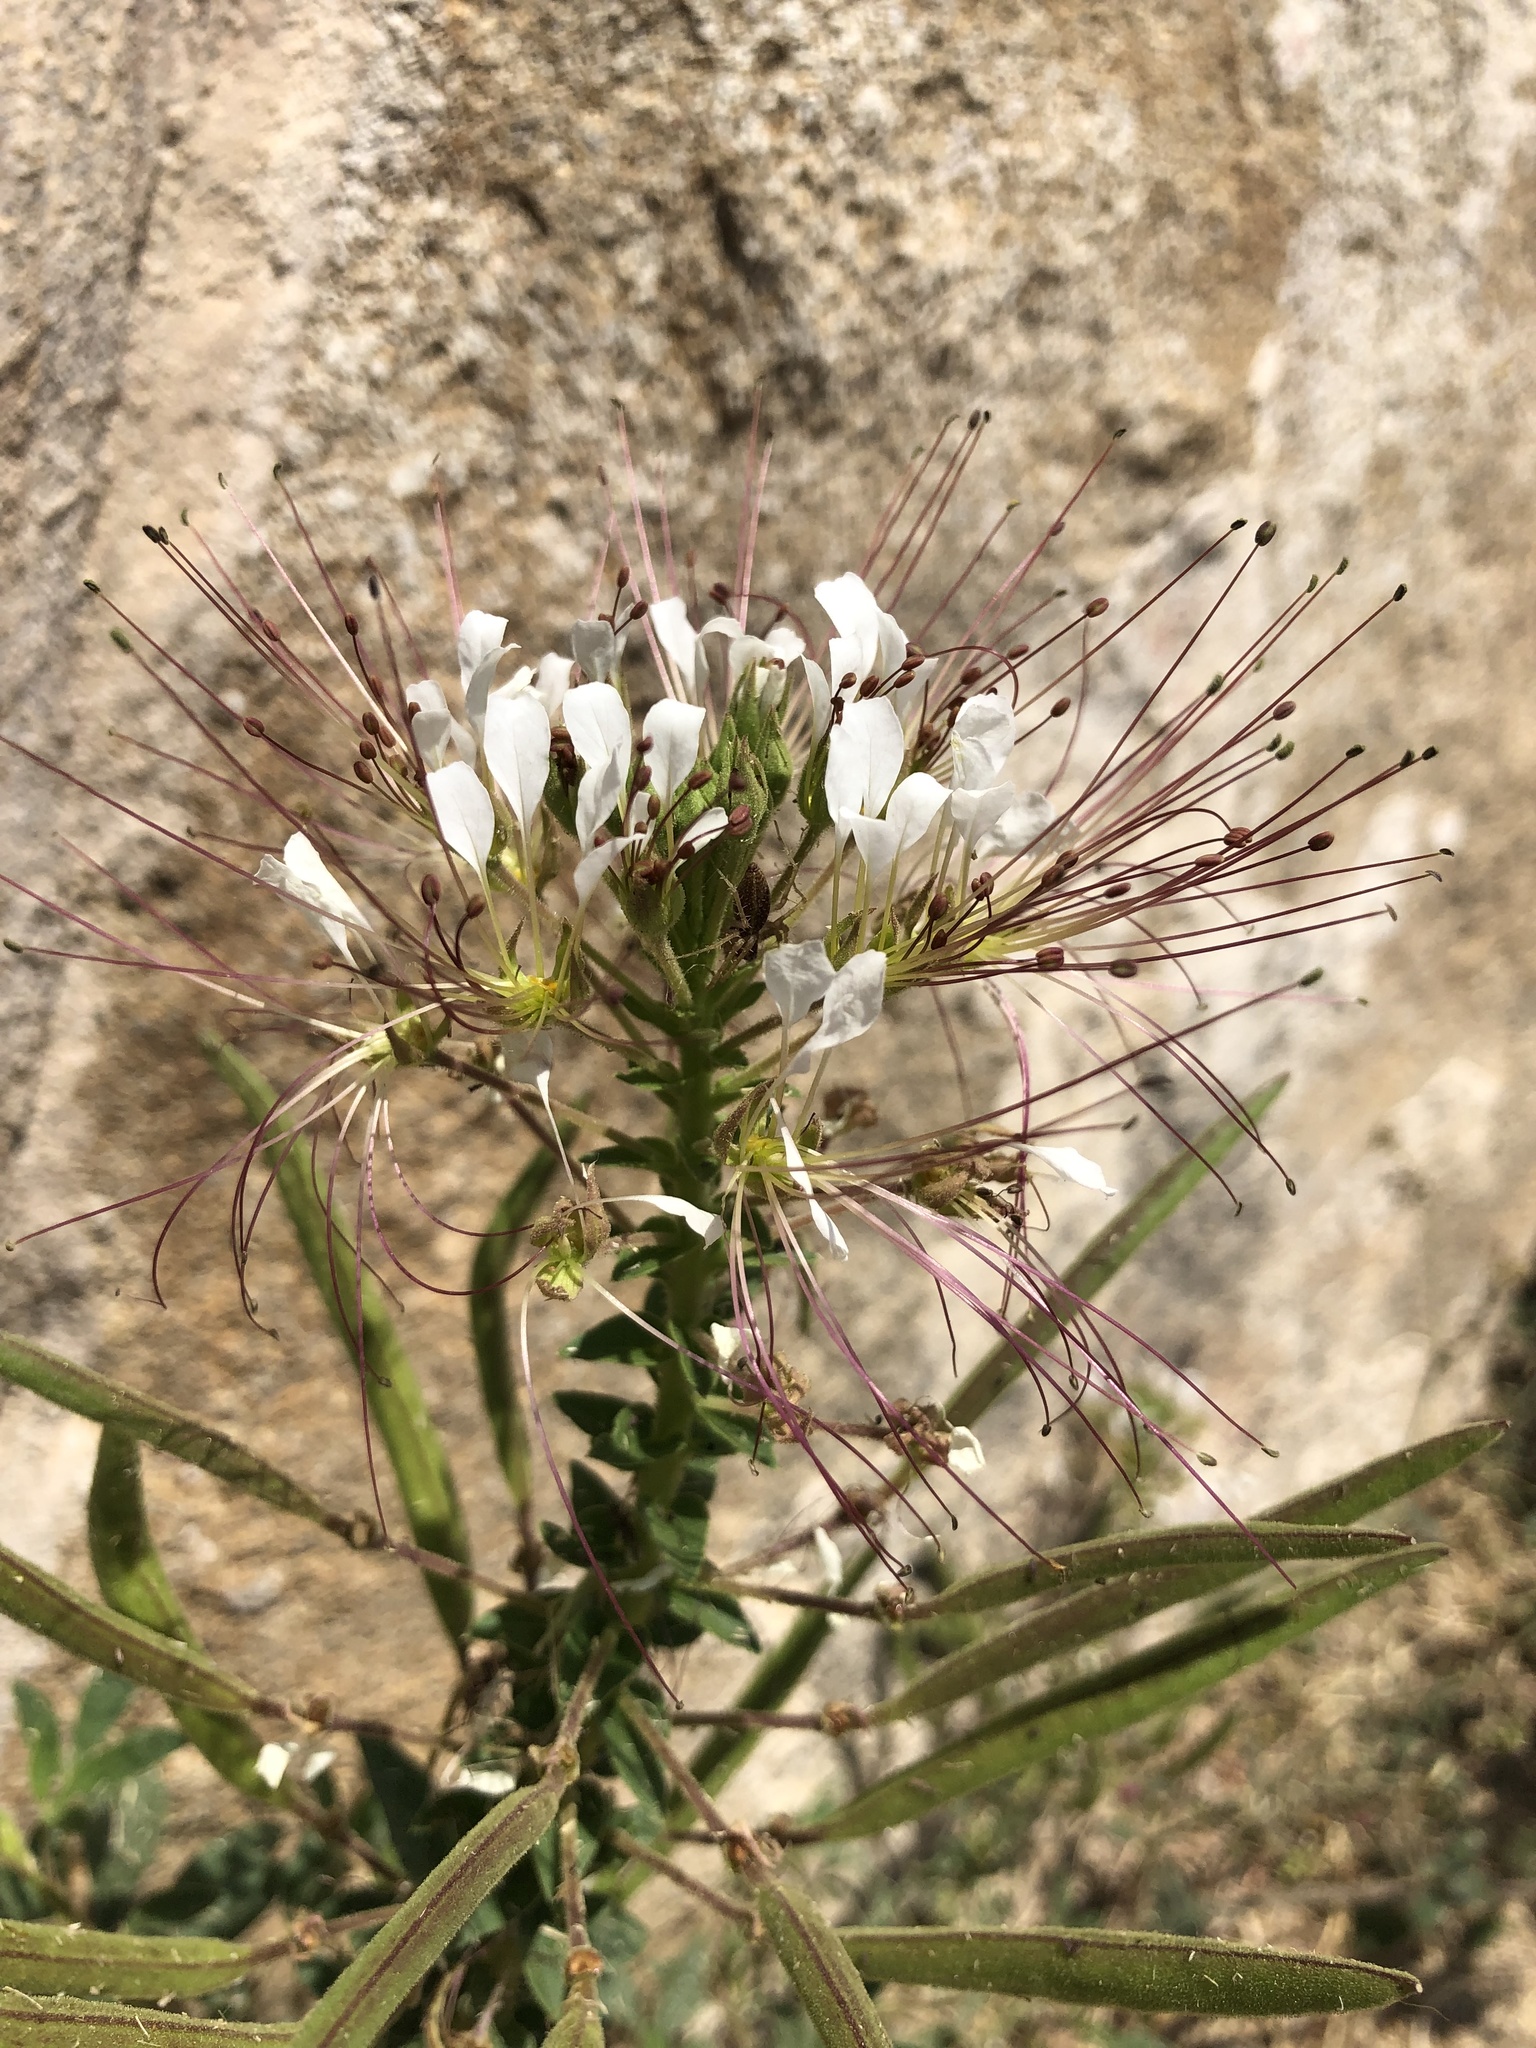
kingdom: Plantae
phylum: Tracheophyta
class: Magnoliopsida
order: Brassicales
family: Cleomaceae
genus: Polanisia
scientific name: Polanisia dodecandra
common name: Clammyweed
